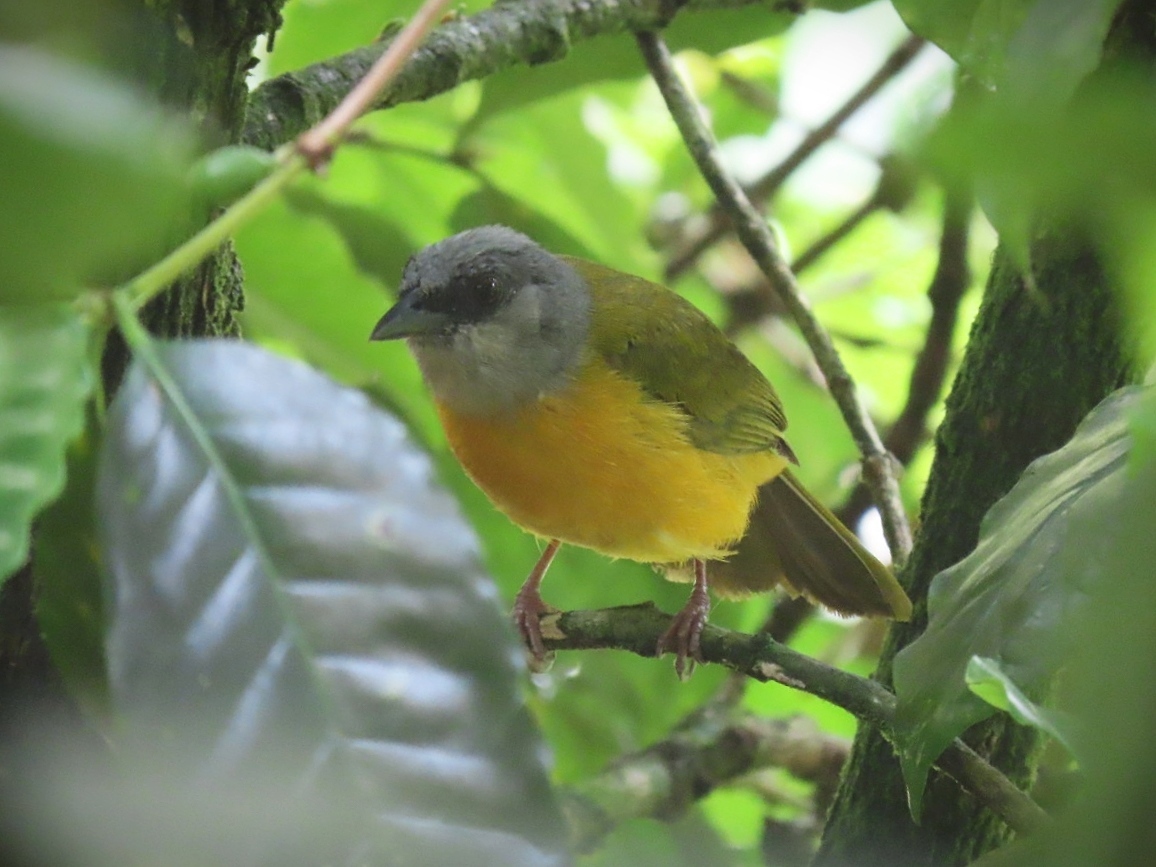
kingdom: Animalia
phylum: Chordata
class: Aves
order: Passeriformes
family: Thraupidae
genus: Eucometis
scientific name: Eucometis penicillata
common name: Grey-headed tanager
